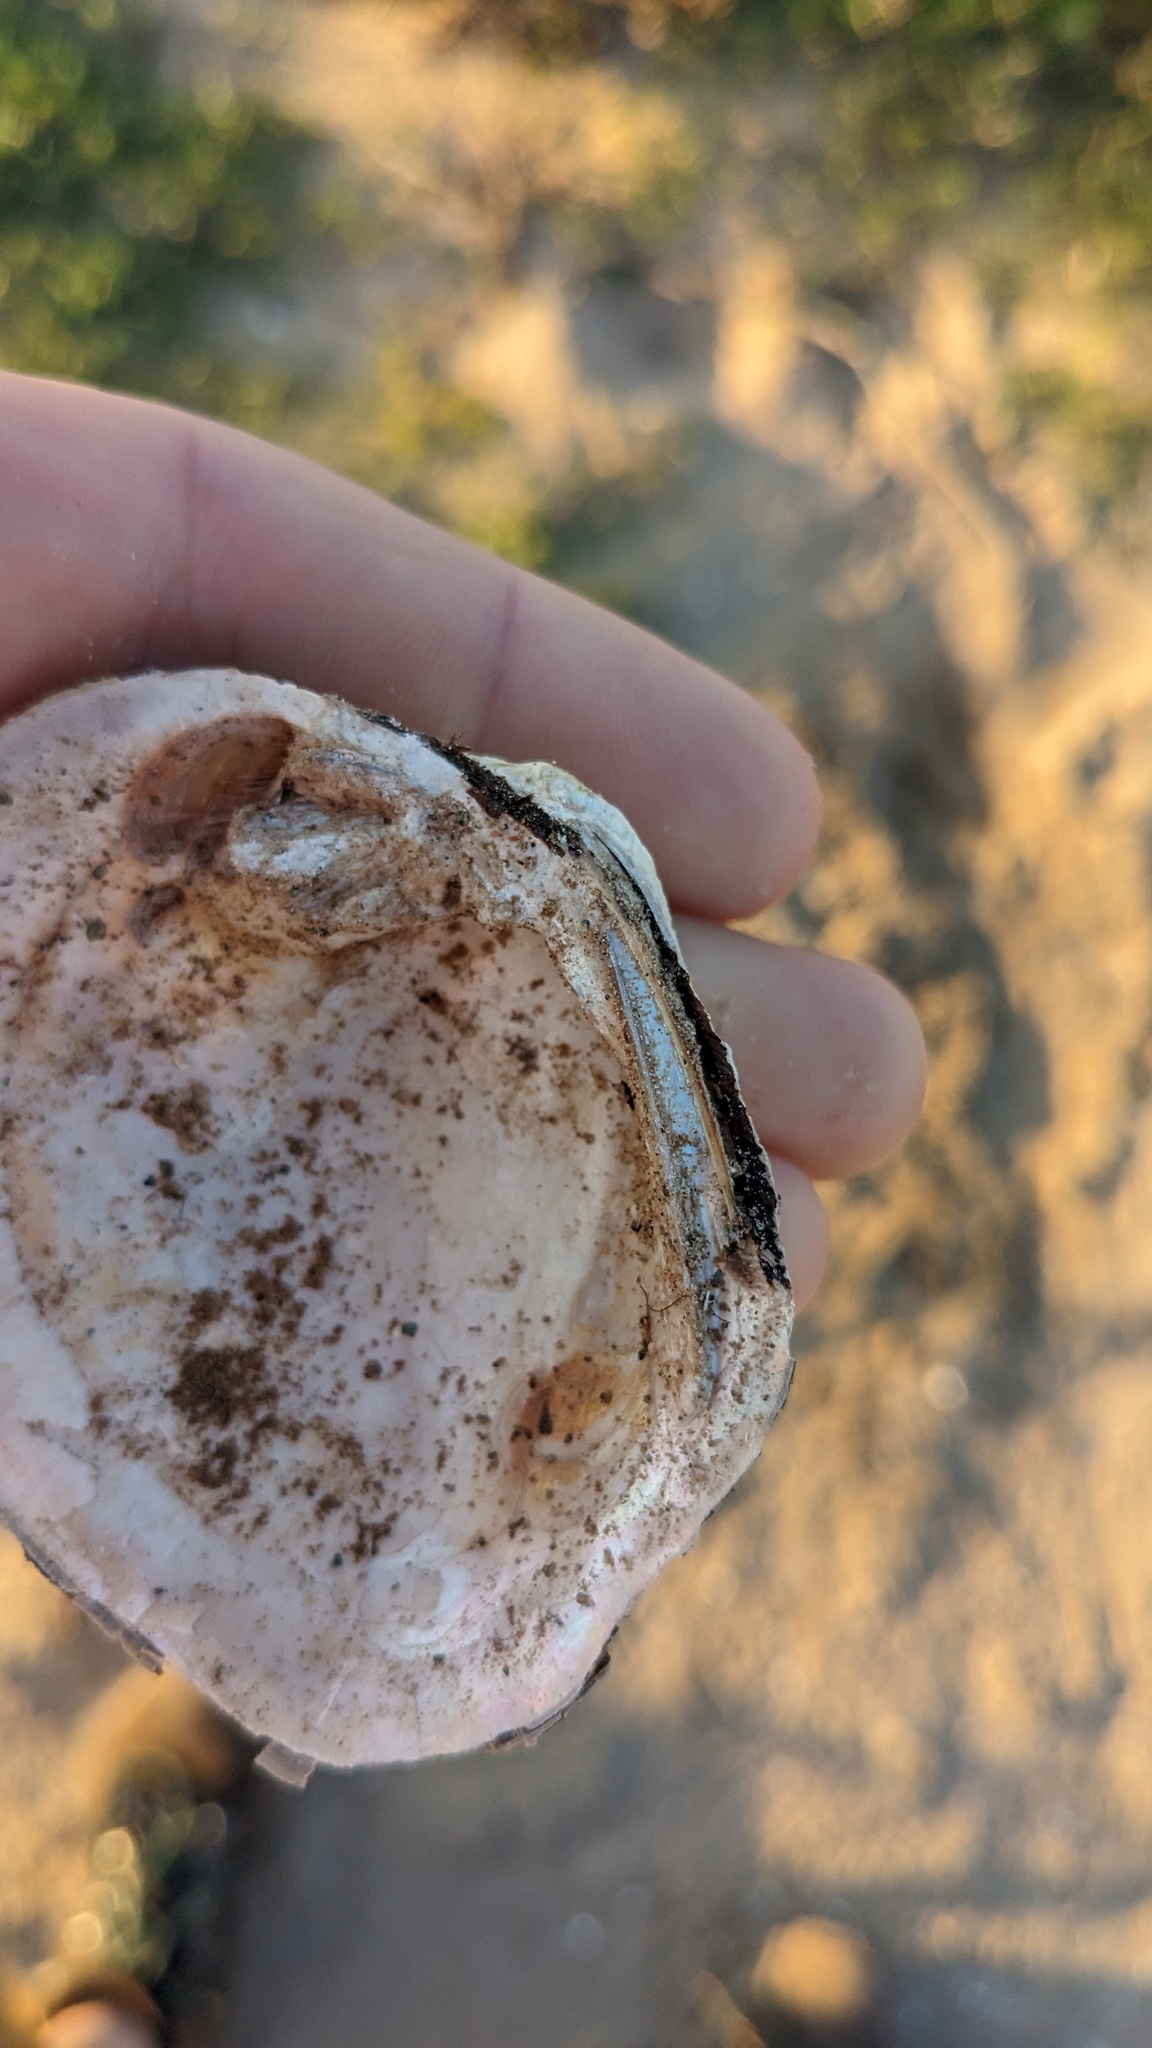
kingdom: Animalia
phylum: Mollusca
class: Bivalvia
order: Unionida
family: Unionidae
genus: Quadrula
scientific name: Quadrula quadrula
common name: Mapleleaf
